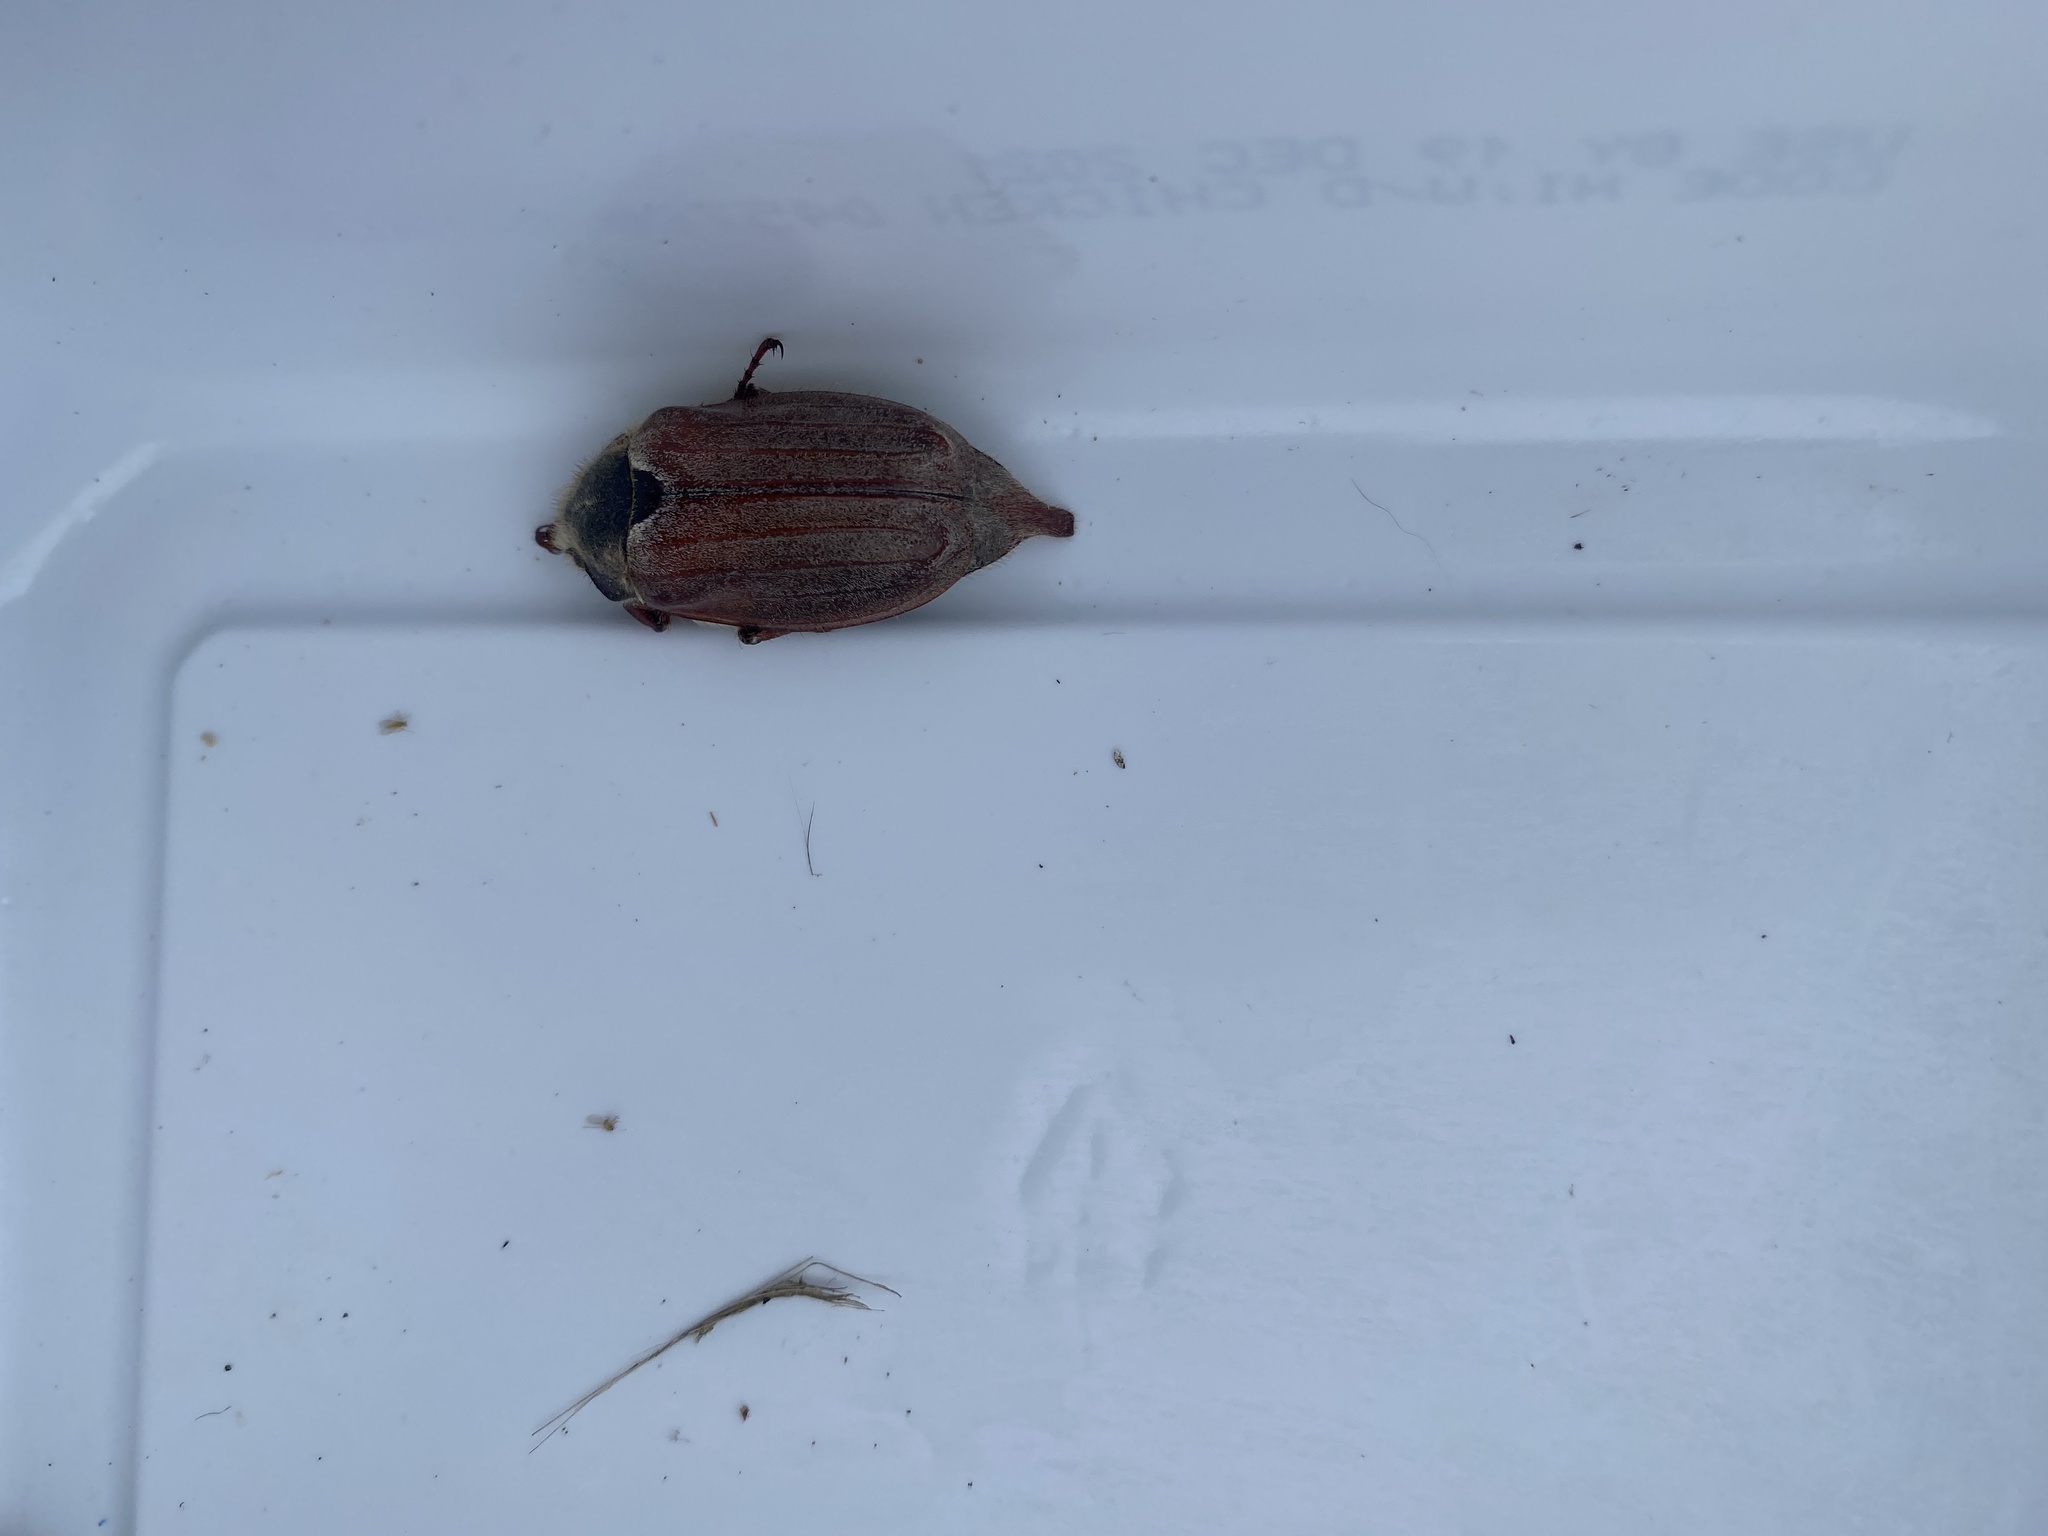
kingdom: Animalia
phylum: Arthropoda
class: Insecta
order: Coleoptera
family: Scarabaeidae
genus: Melolontha
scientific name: Melolontha melolontha
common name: Cockchafer maybeetle
